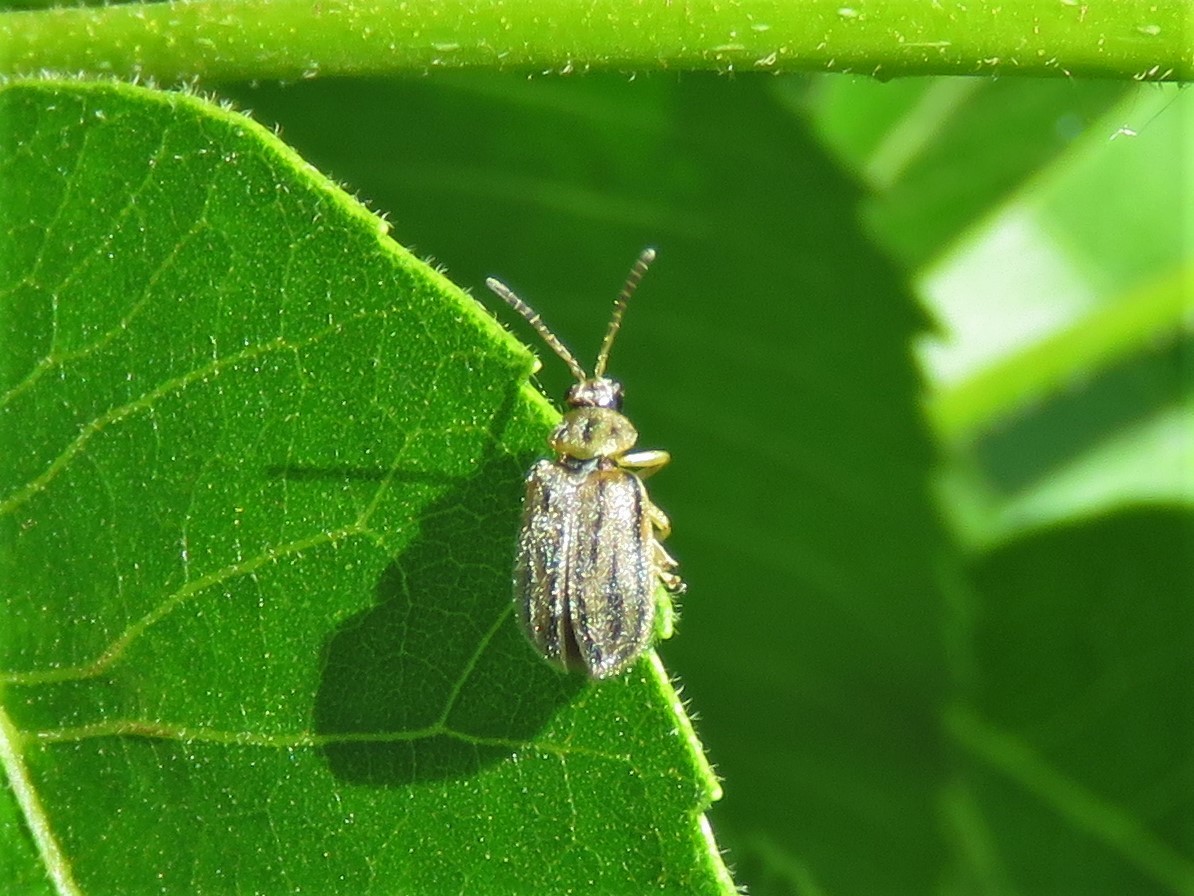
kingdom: Animalia
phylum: Arthropoda
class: Insecta
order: Coleoptera
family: Chrysomelidae
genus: Ophraella
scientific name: Ophraella communa
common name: Ragweed leaf beetle
